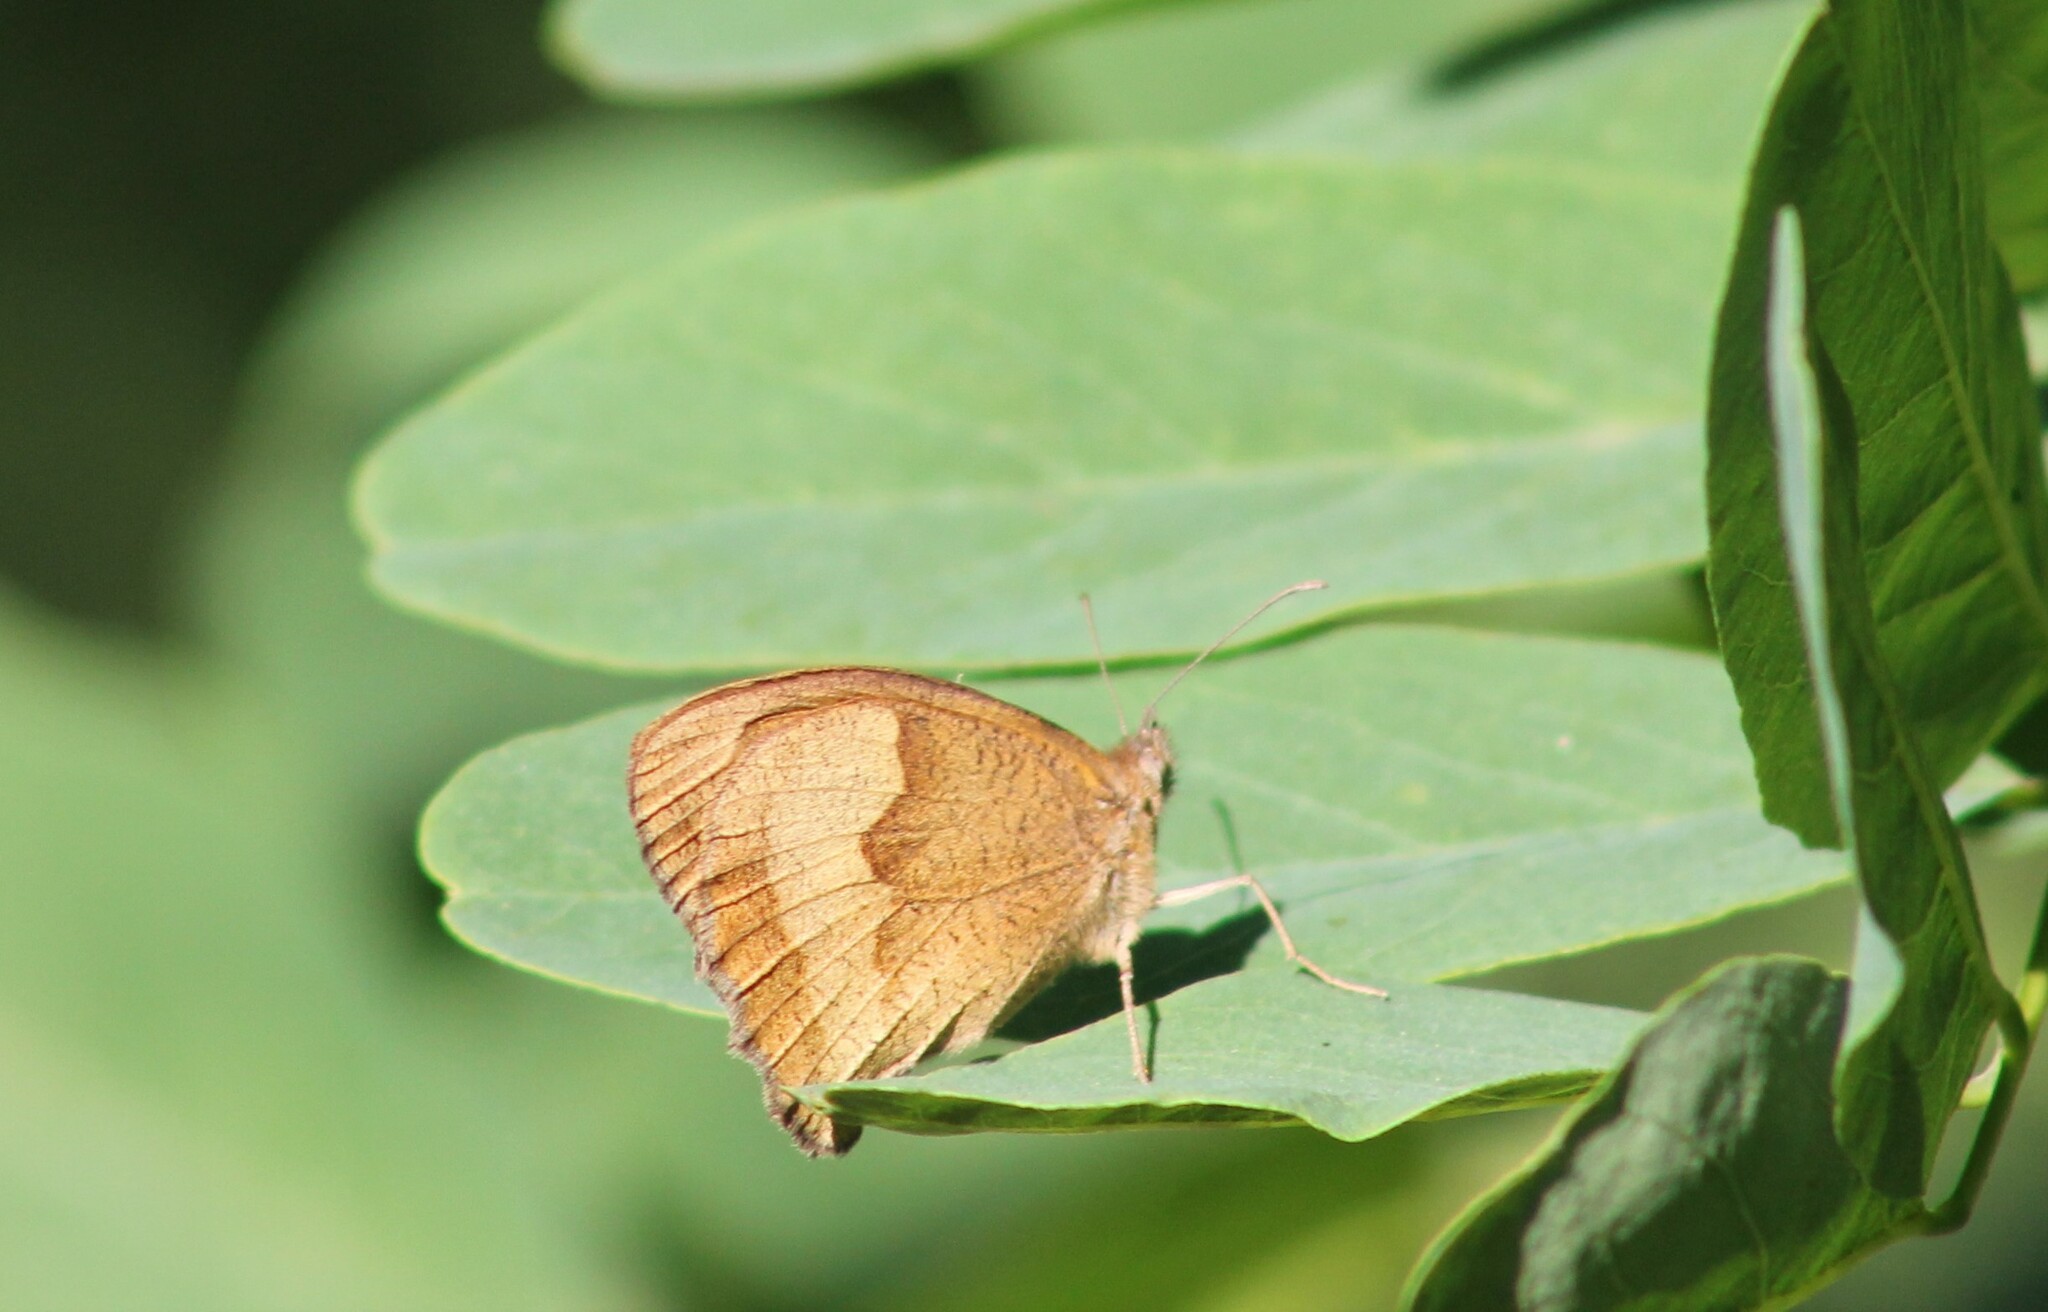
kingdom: Animalia
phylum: Arthropoda
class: Insecta
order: Lepidoptera
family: Nymphalidae
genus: Maniola
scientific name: Maniola jurtina
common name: Meadow brown
